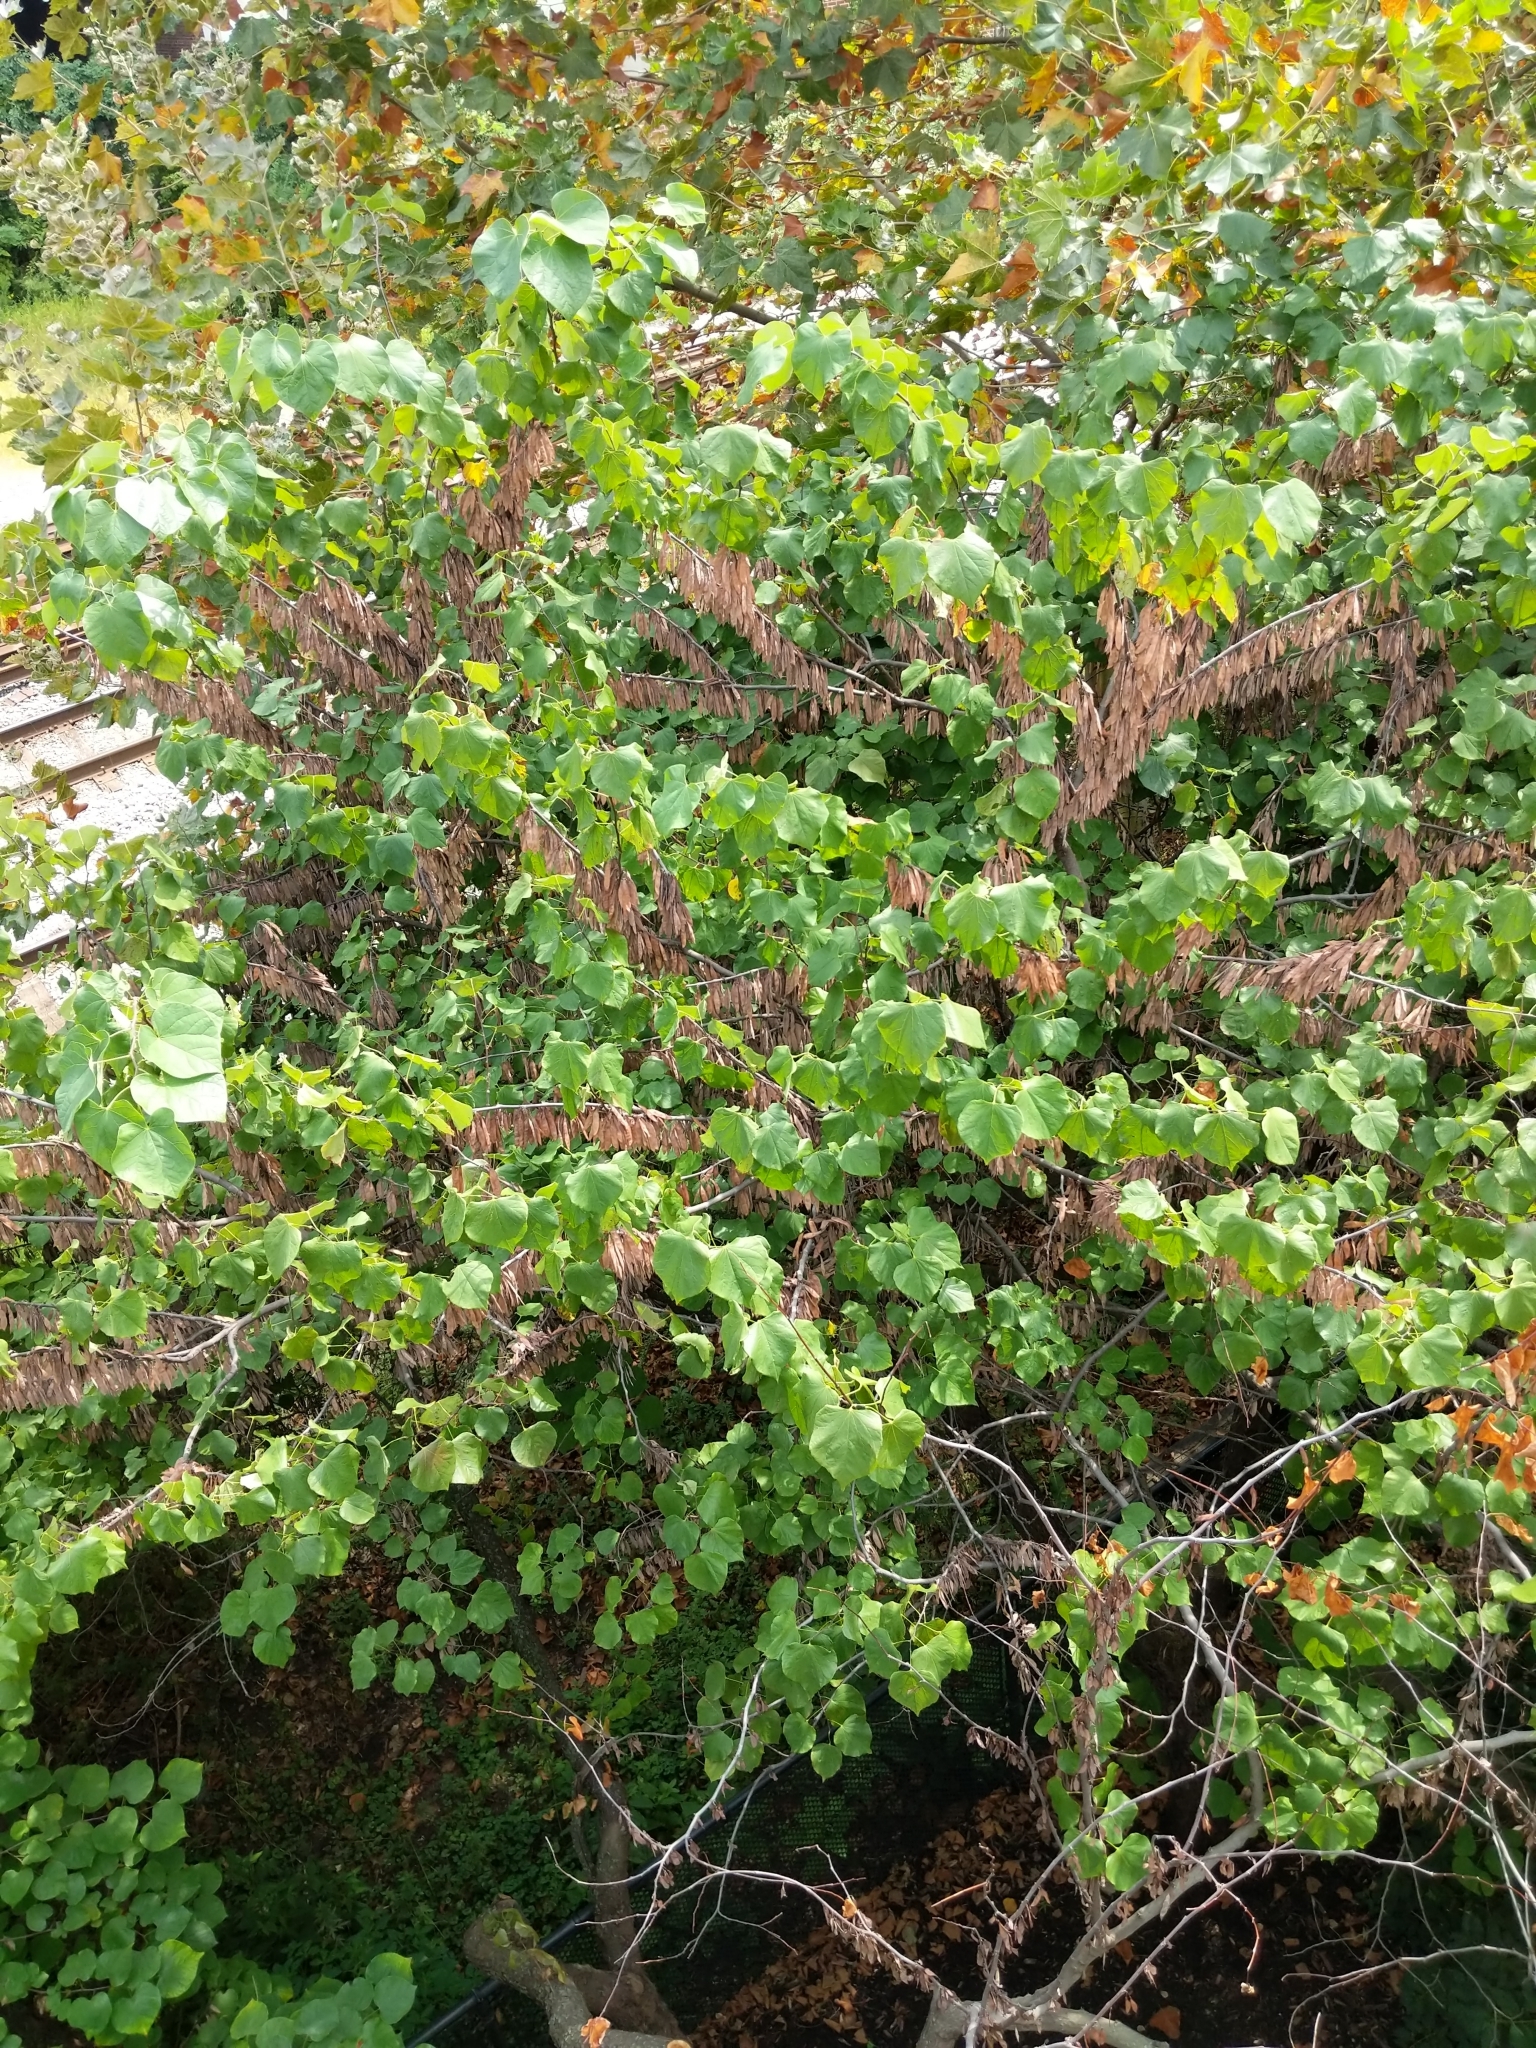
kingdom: Plantae
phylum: Tracheophyta
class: Magnoliopsida
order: Fabales
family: Fabaceae
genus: Cercis
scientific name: Cercis canadensis
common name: Eastern redbud
